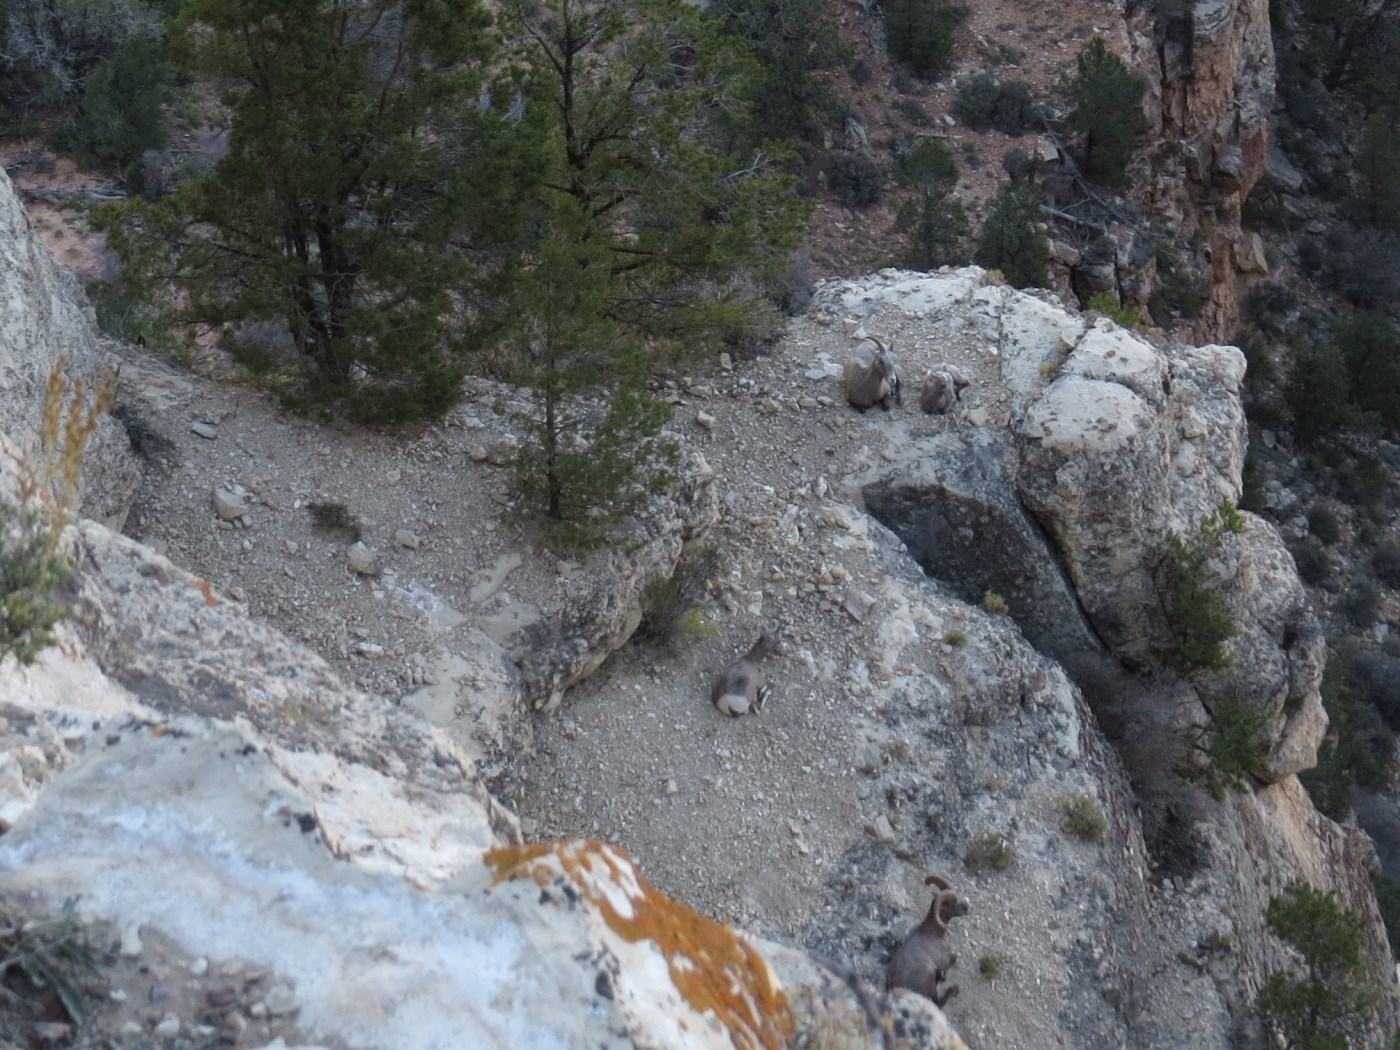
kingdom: Animalia
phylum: Chordata
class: Mammalia
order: Artiodactyla
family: Bovidae
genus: Ovis
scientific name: Ovis canadensis
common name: Bighorn sheep
